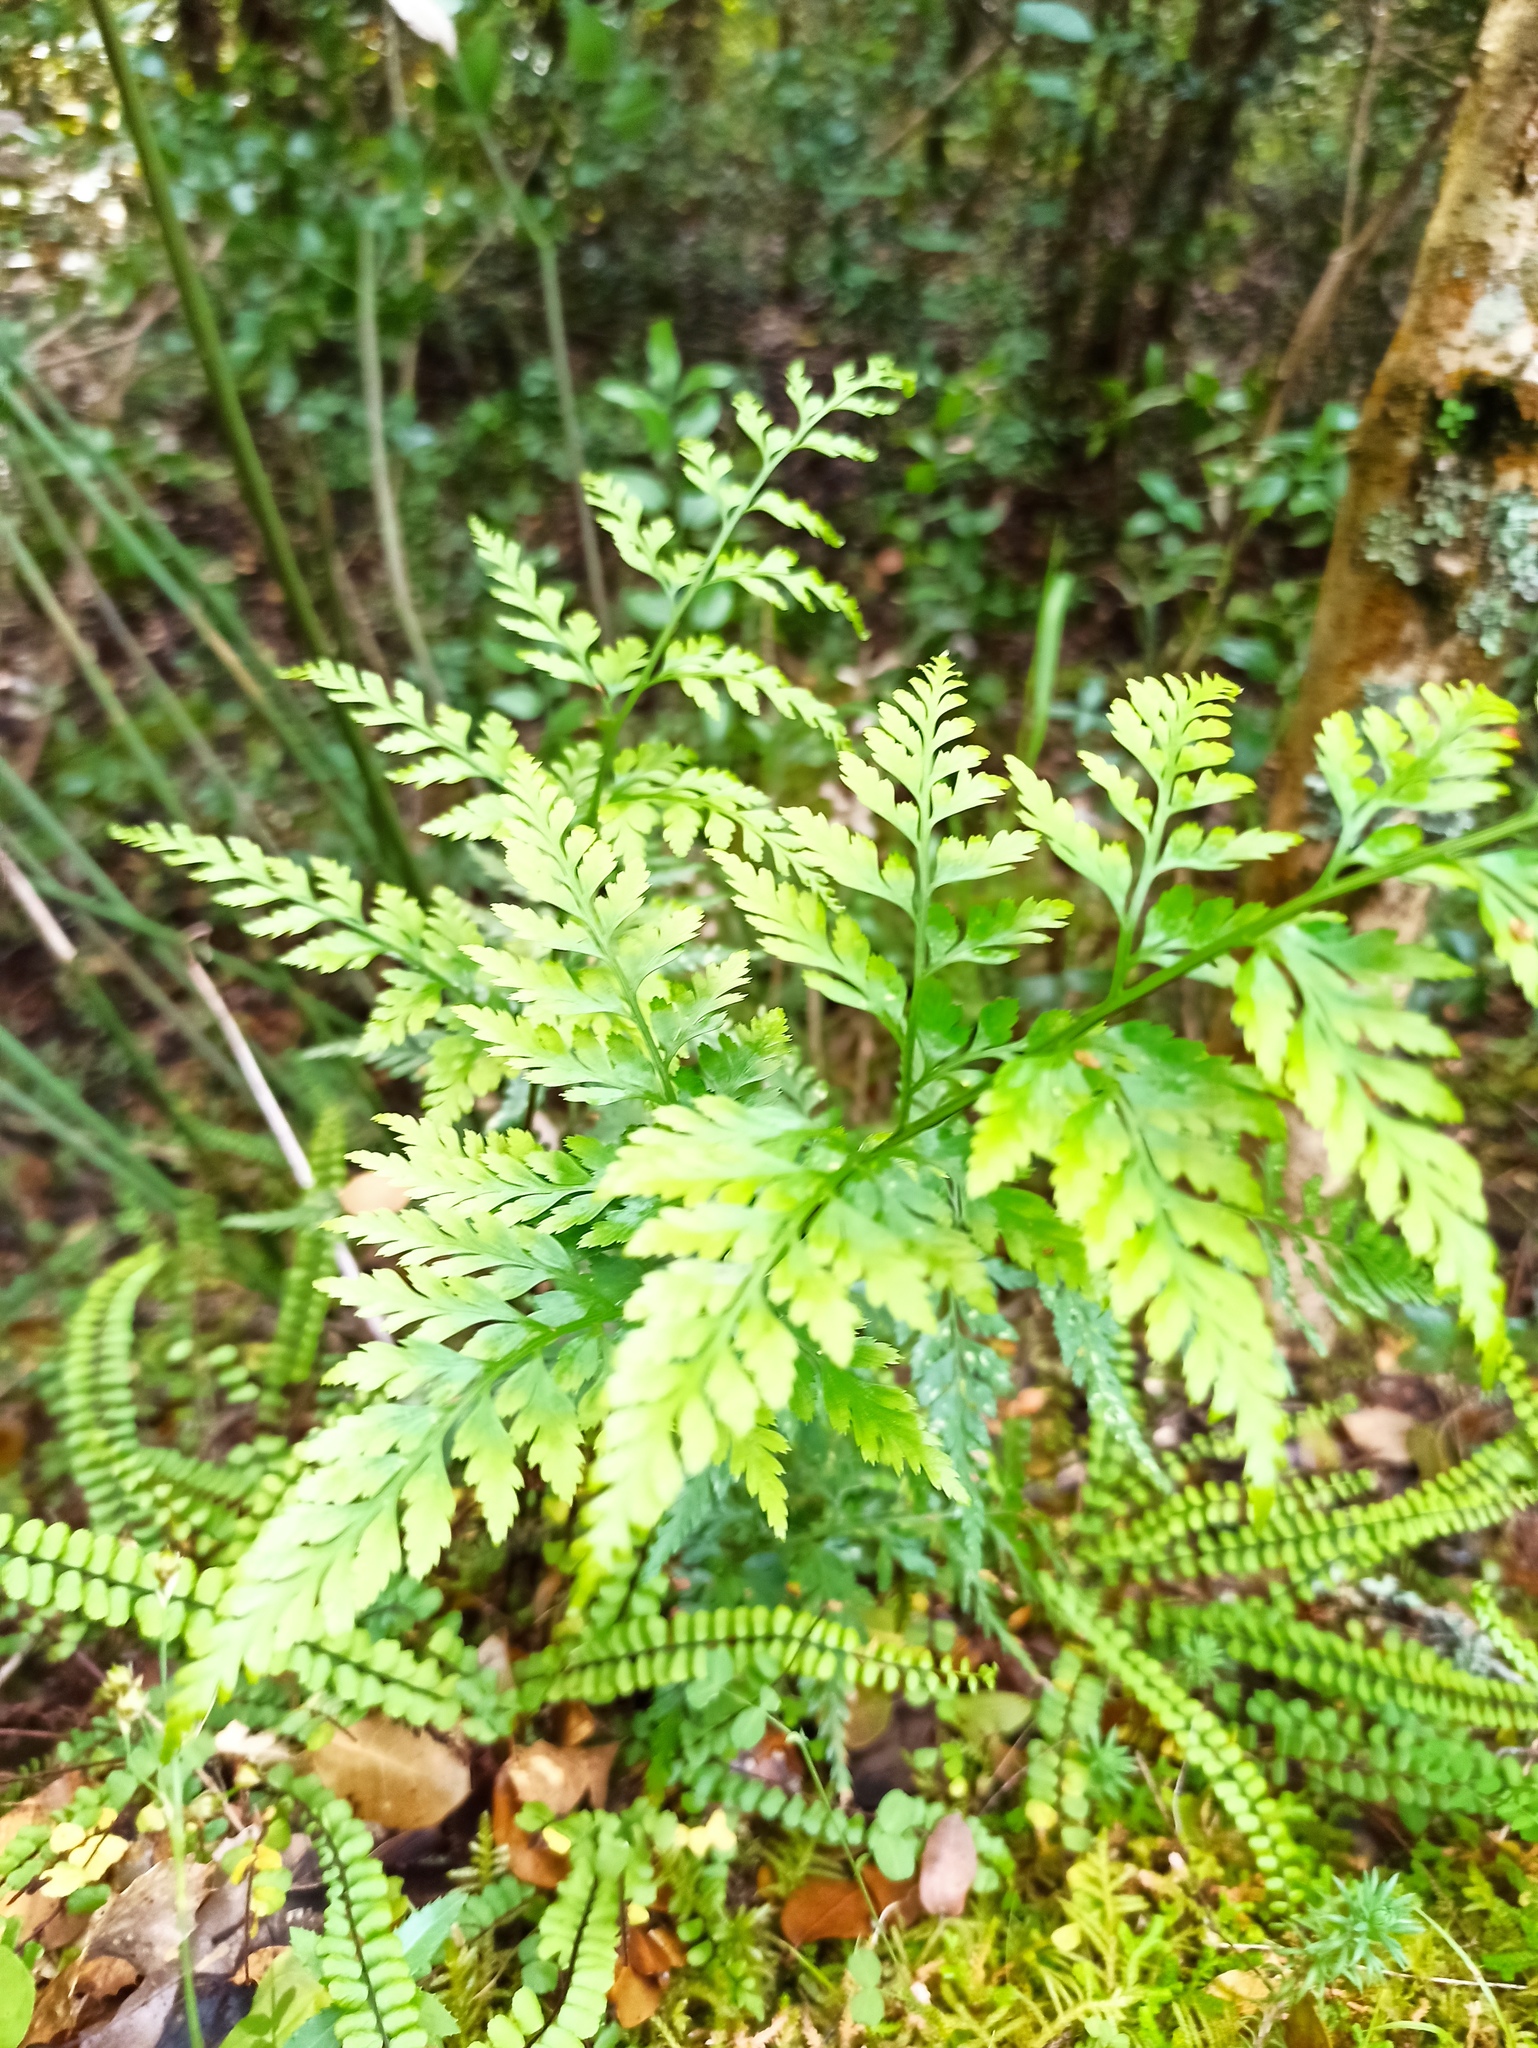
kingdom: Plantae
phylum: Tracheophyta
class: Polypodiopsida
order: Polypodiales
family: Aspleniaceae
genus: Asplenium
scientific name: Asplenium adiantum-nigrum
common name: Black spleenwort
